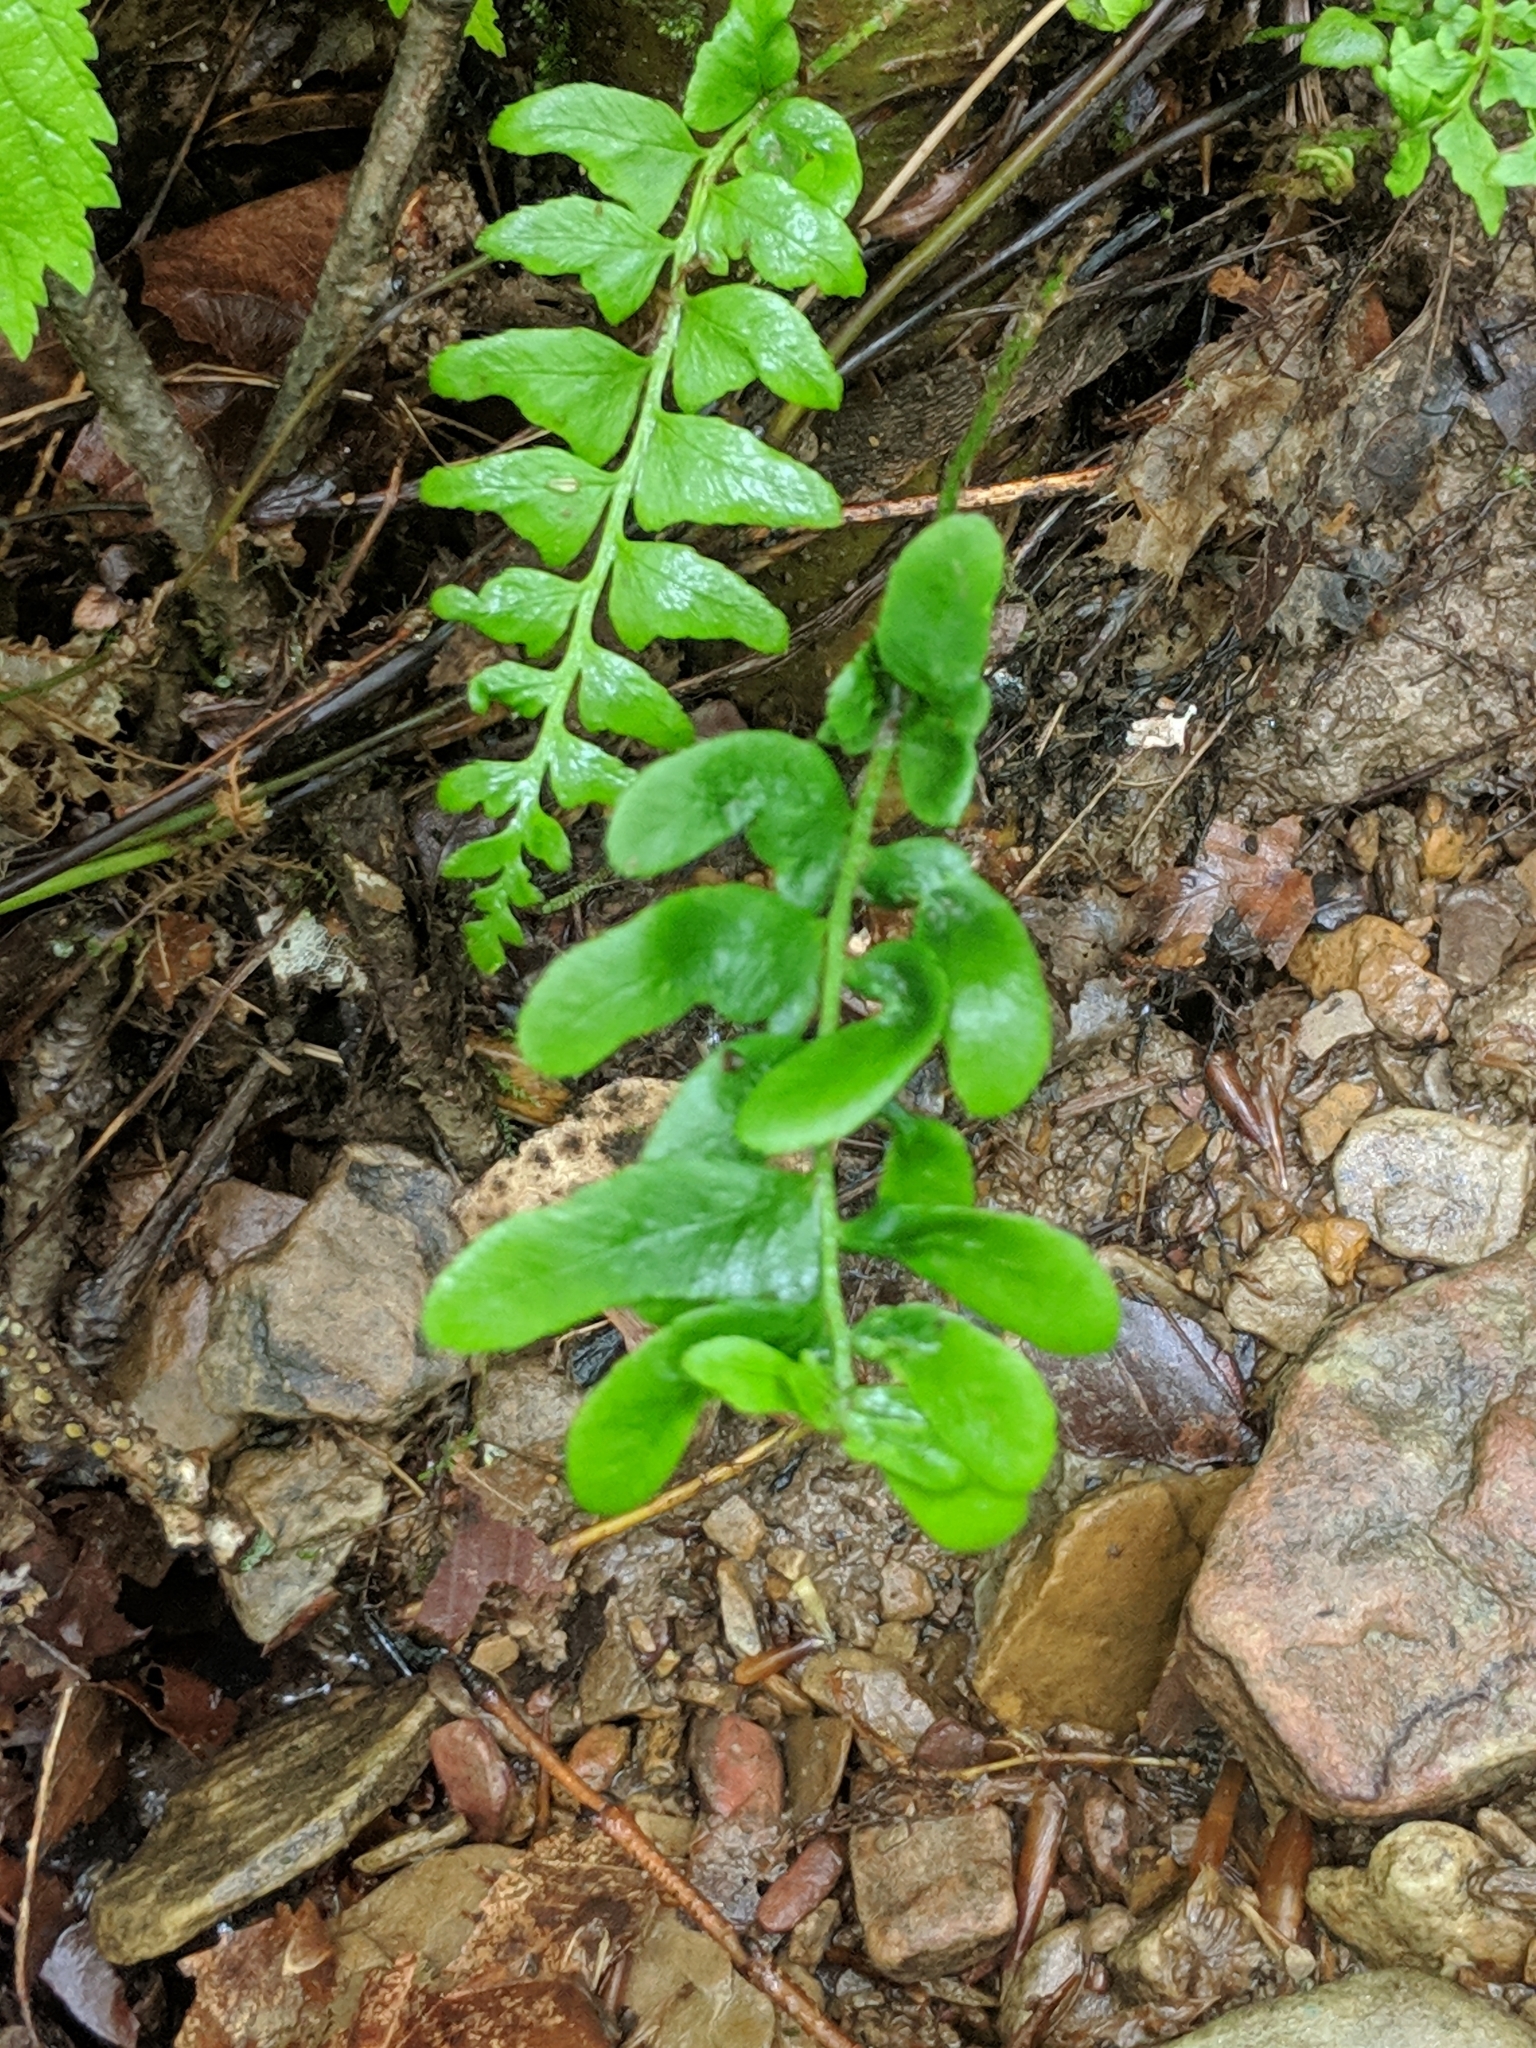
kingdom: Plantae
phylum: Tracheophyta
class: Polypodiopsida
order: Polypodiales
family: Dryopteridaceae
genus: Polystichum
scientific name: Polystichum acrostichoides
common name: Christmas fern
